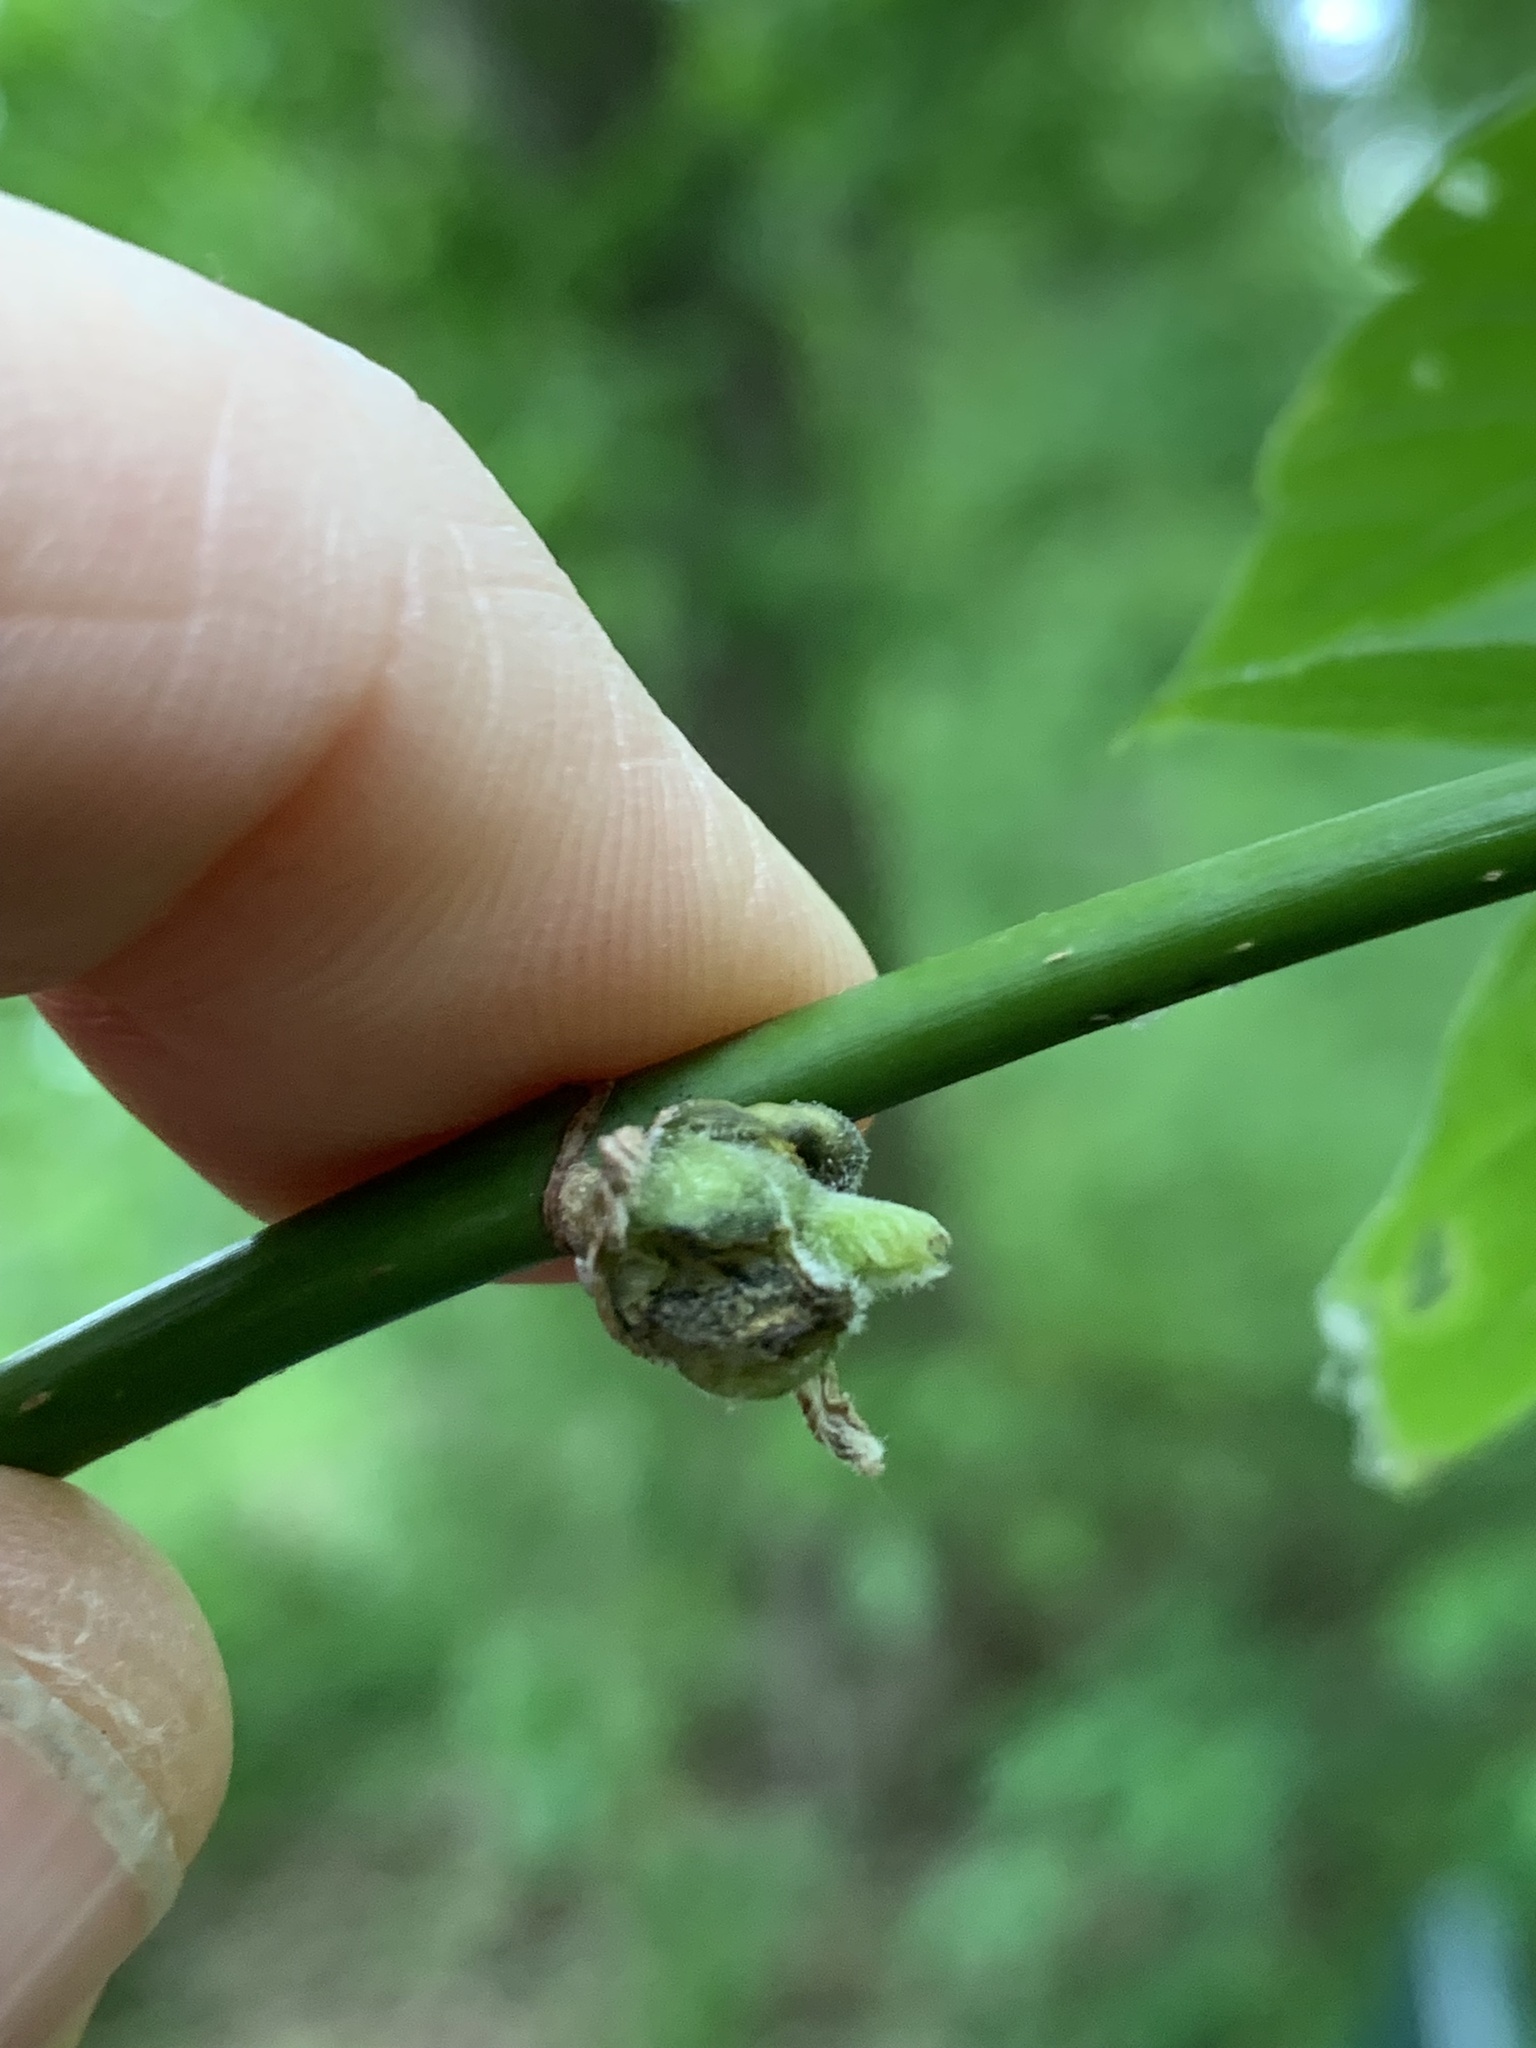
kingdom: Animalia
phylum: Arthropoda
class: Insecta
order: Diptera
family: Cecidomyiidae
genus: Contarinia
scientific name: Contarinia negundinis
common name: Boxelder budgall midge
